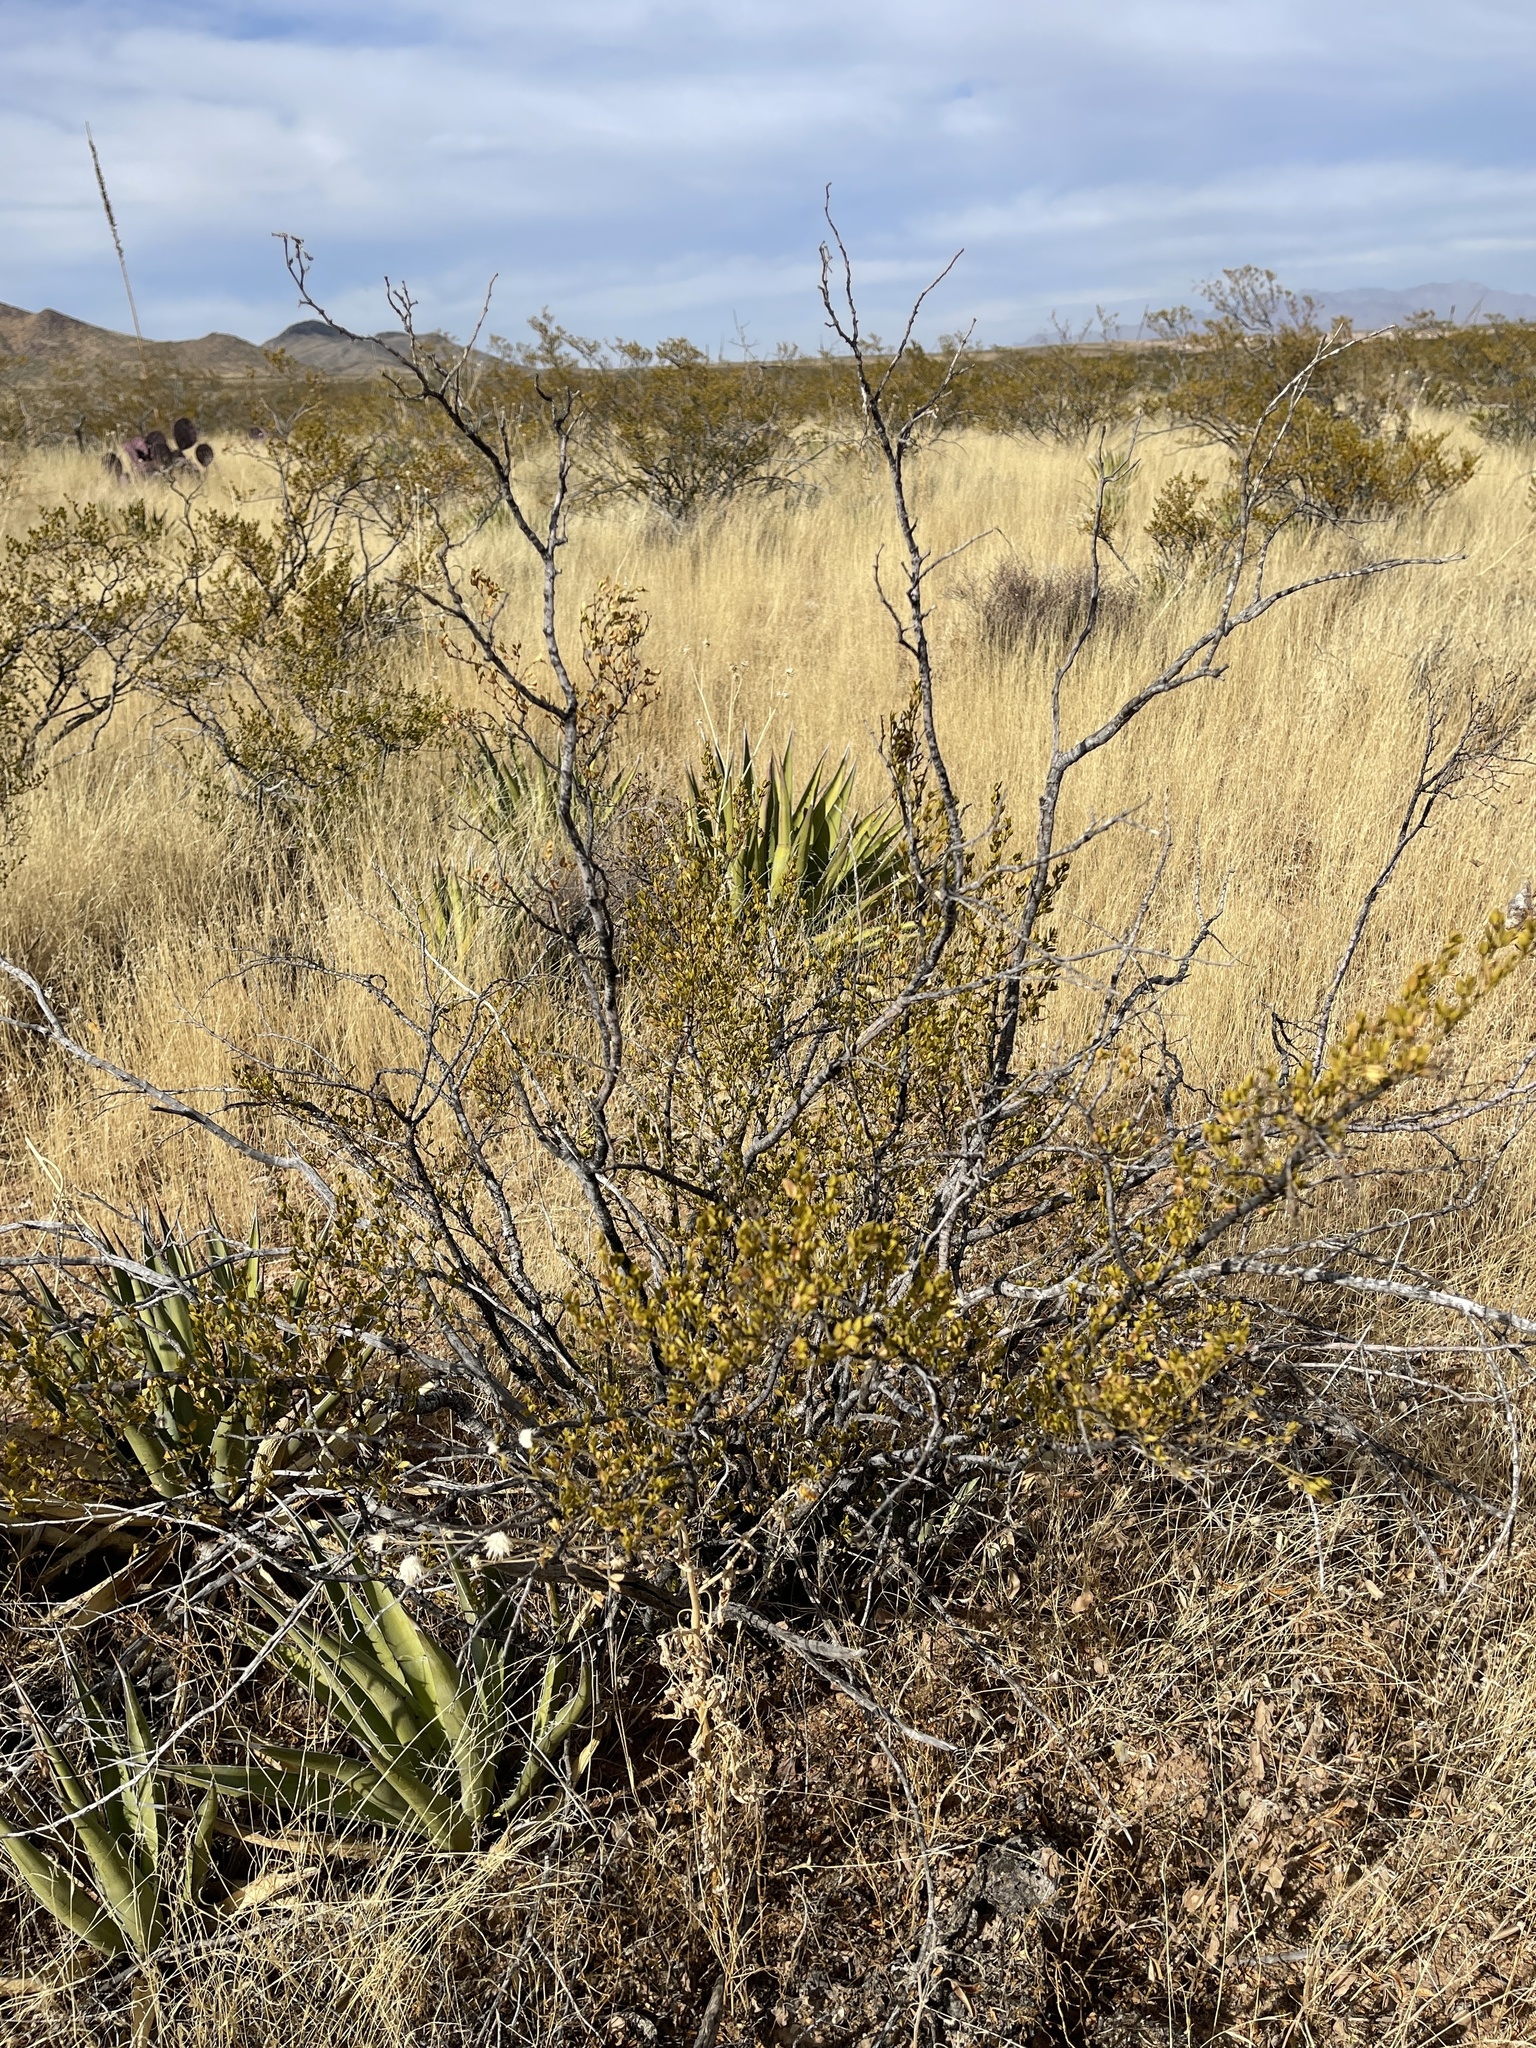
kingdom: Plantae
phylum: Tracheophyta
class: Magnoliopsida
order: Zygophyllales
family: Zygophyllaceae
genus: Larrea
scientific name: Larrea tridentata
